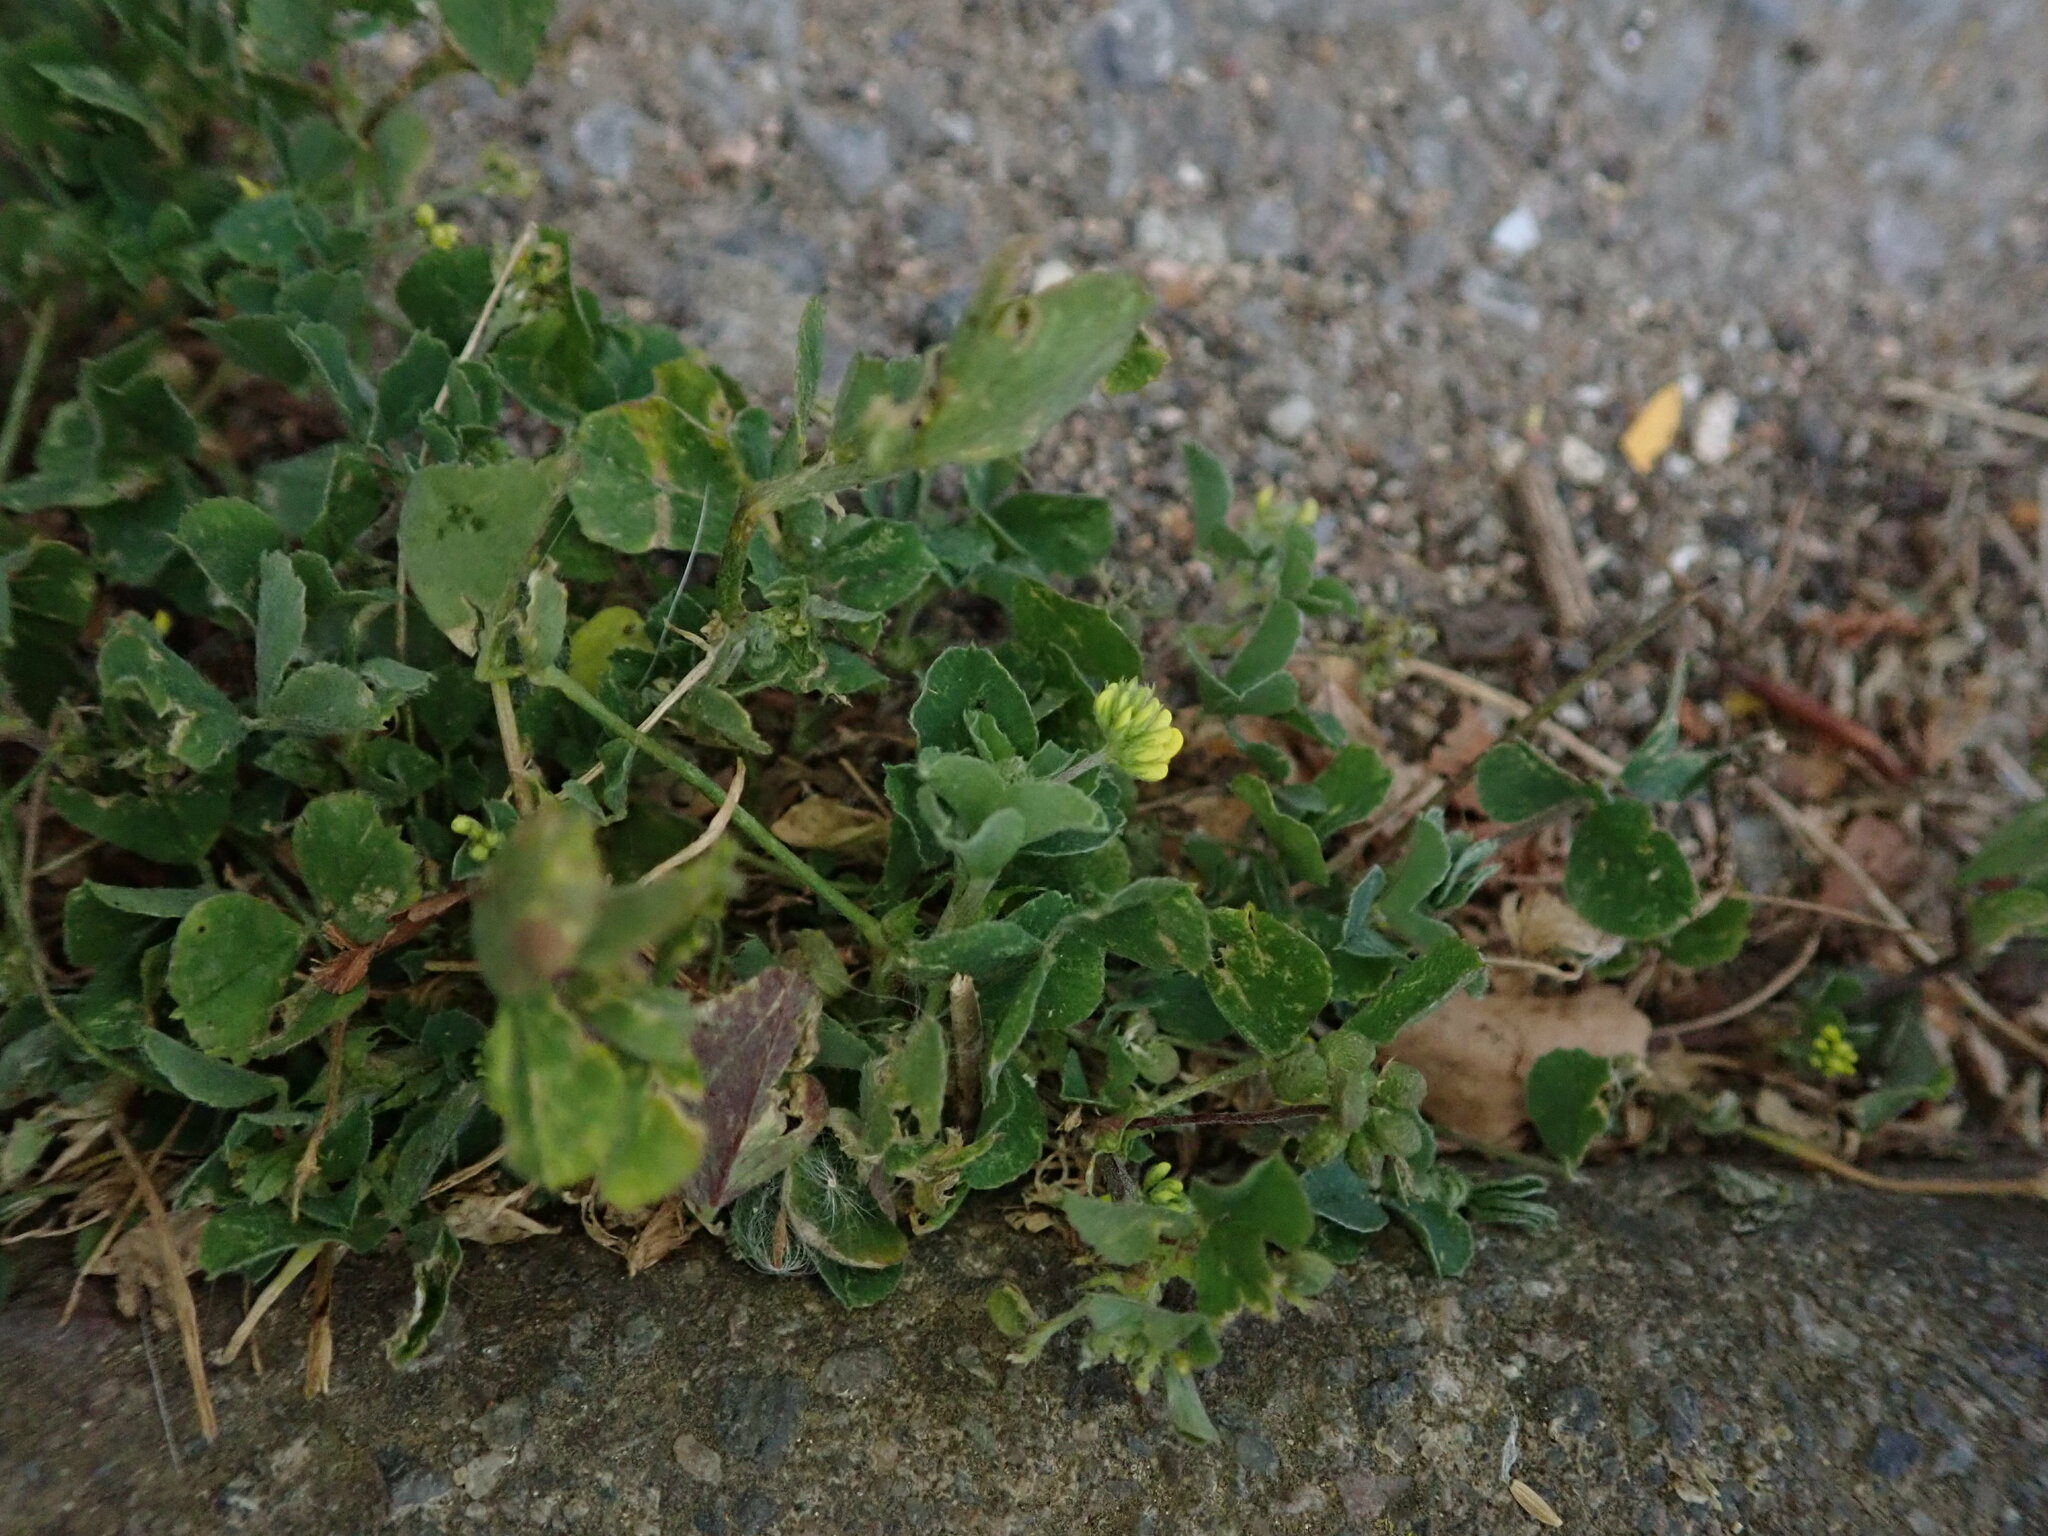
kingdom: Plantae
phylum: Tracheophyta
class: Magnoliopsida
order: Fabales
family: Fabaceae
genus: Medicago
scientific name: Medicago lupulina
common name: Black medick
